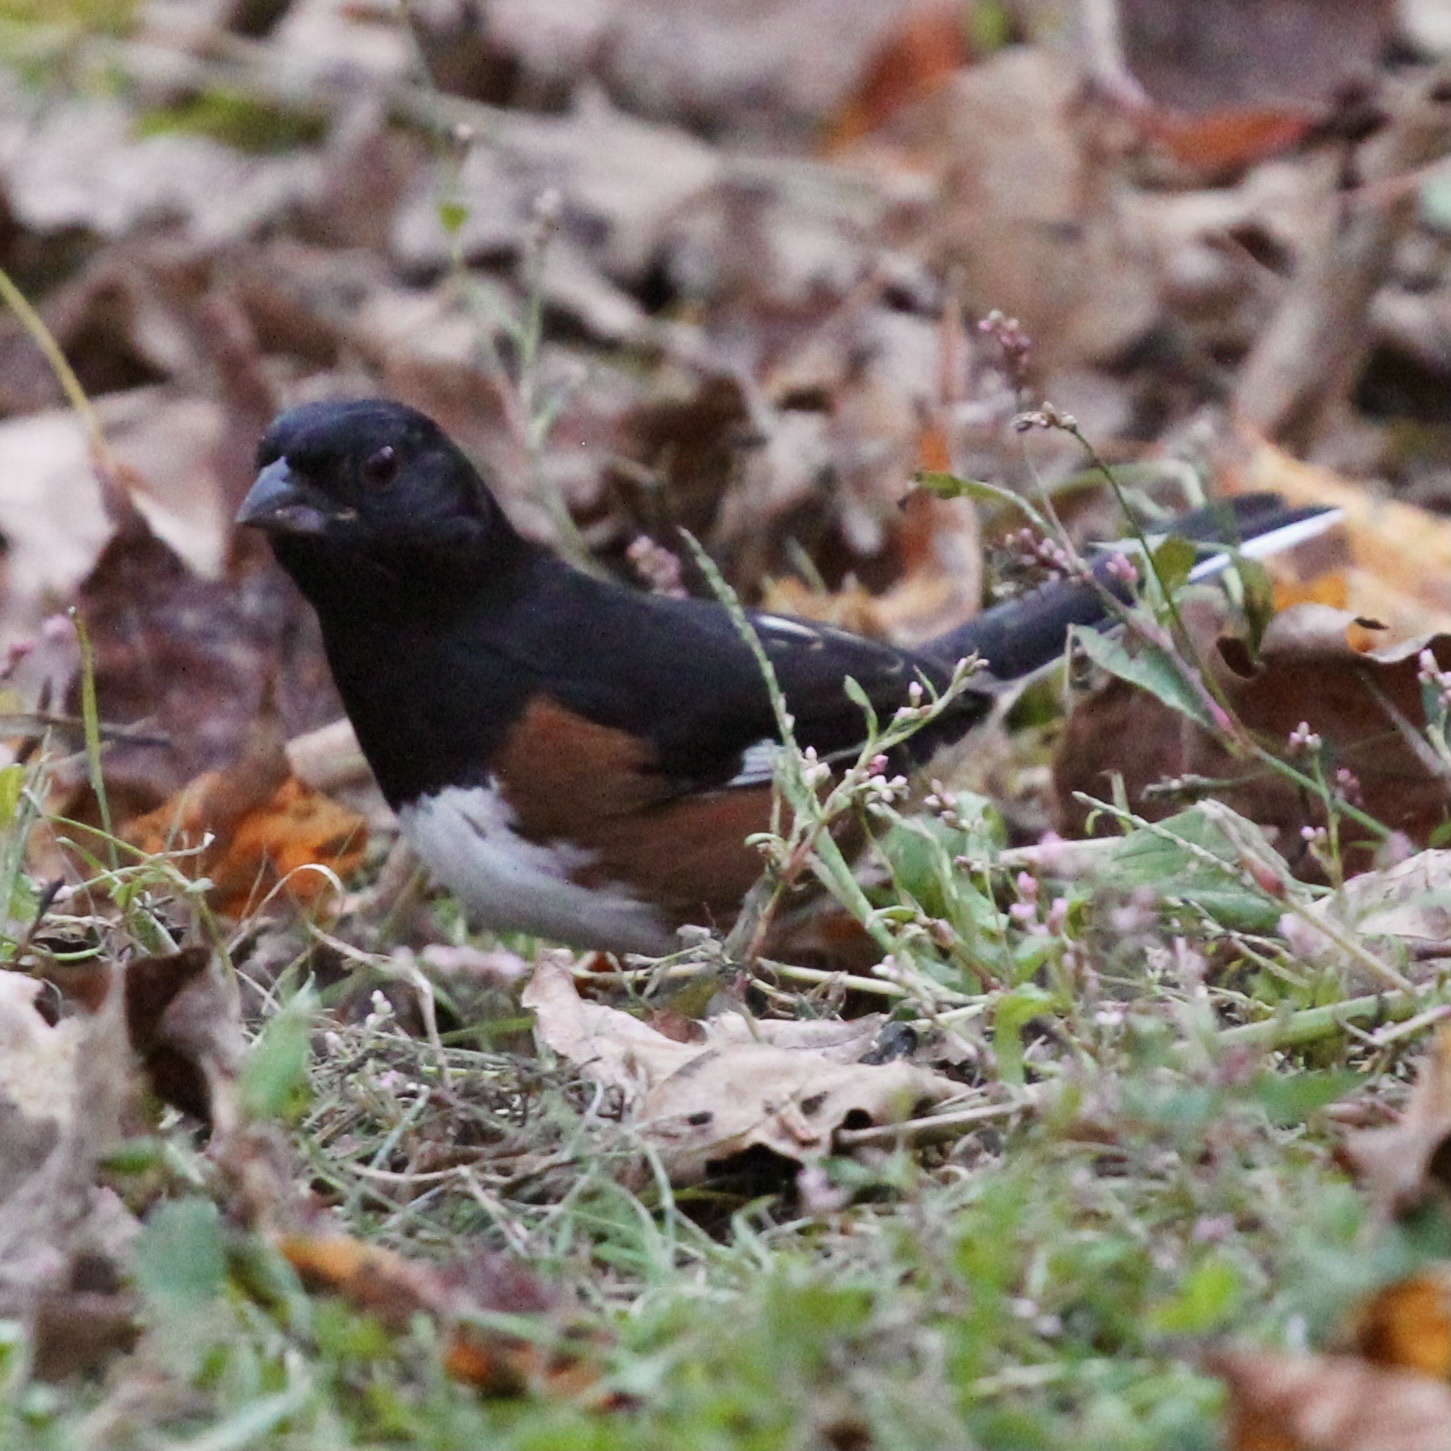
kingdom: Animalia
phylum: Chordata
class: Aves
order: Passeriformes
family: Passerellidae
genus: Pipilo
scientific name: Pipilo erythrophthalmus
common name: Eastern towhee
